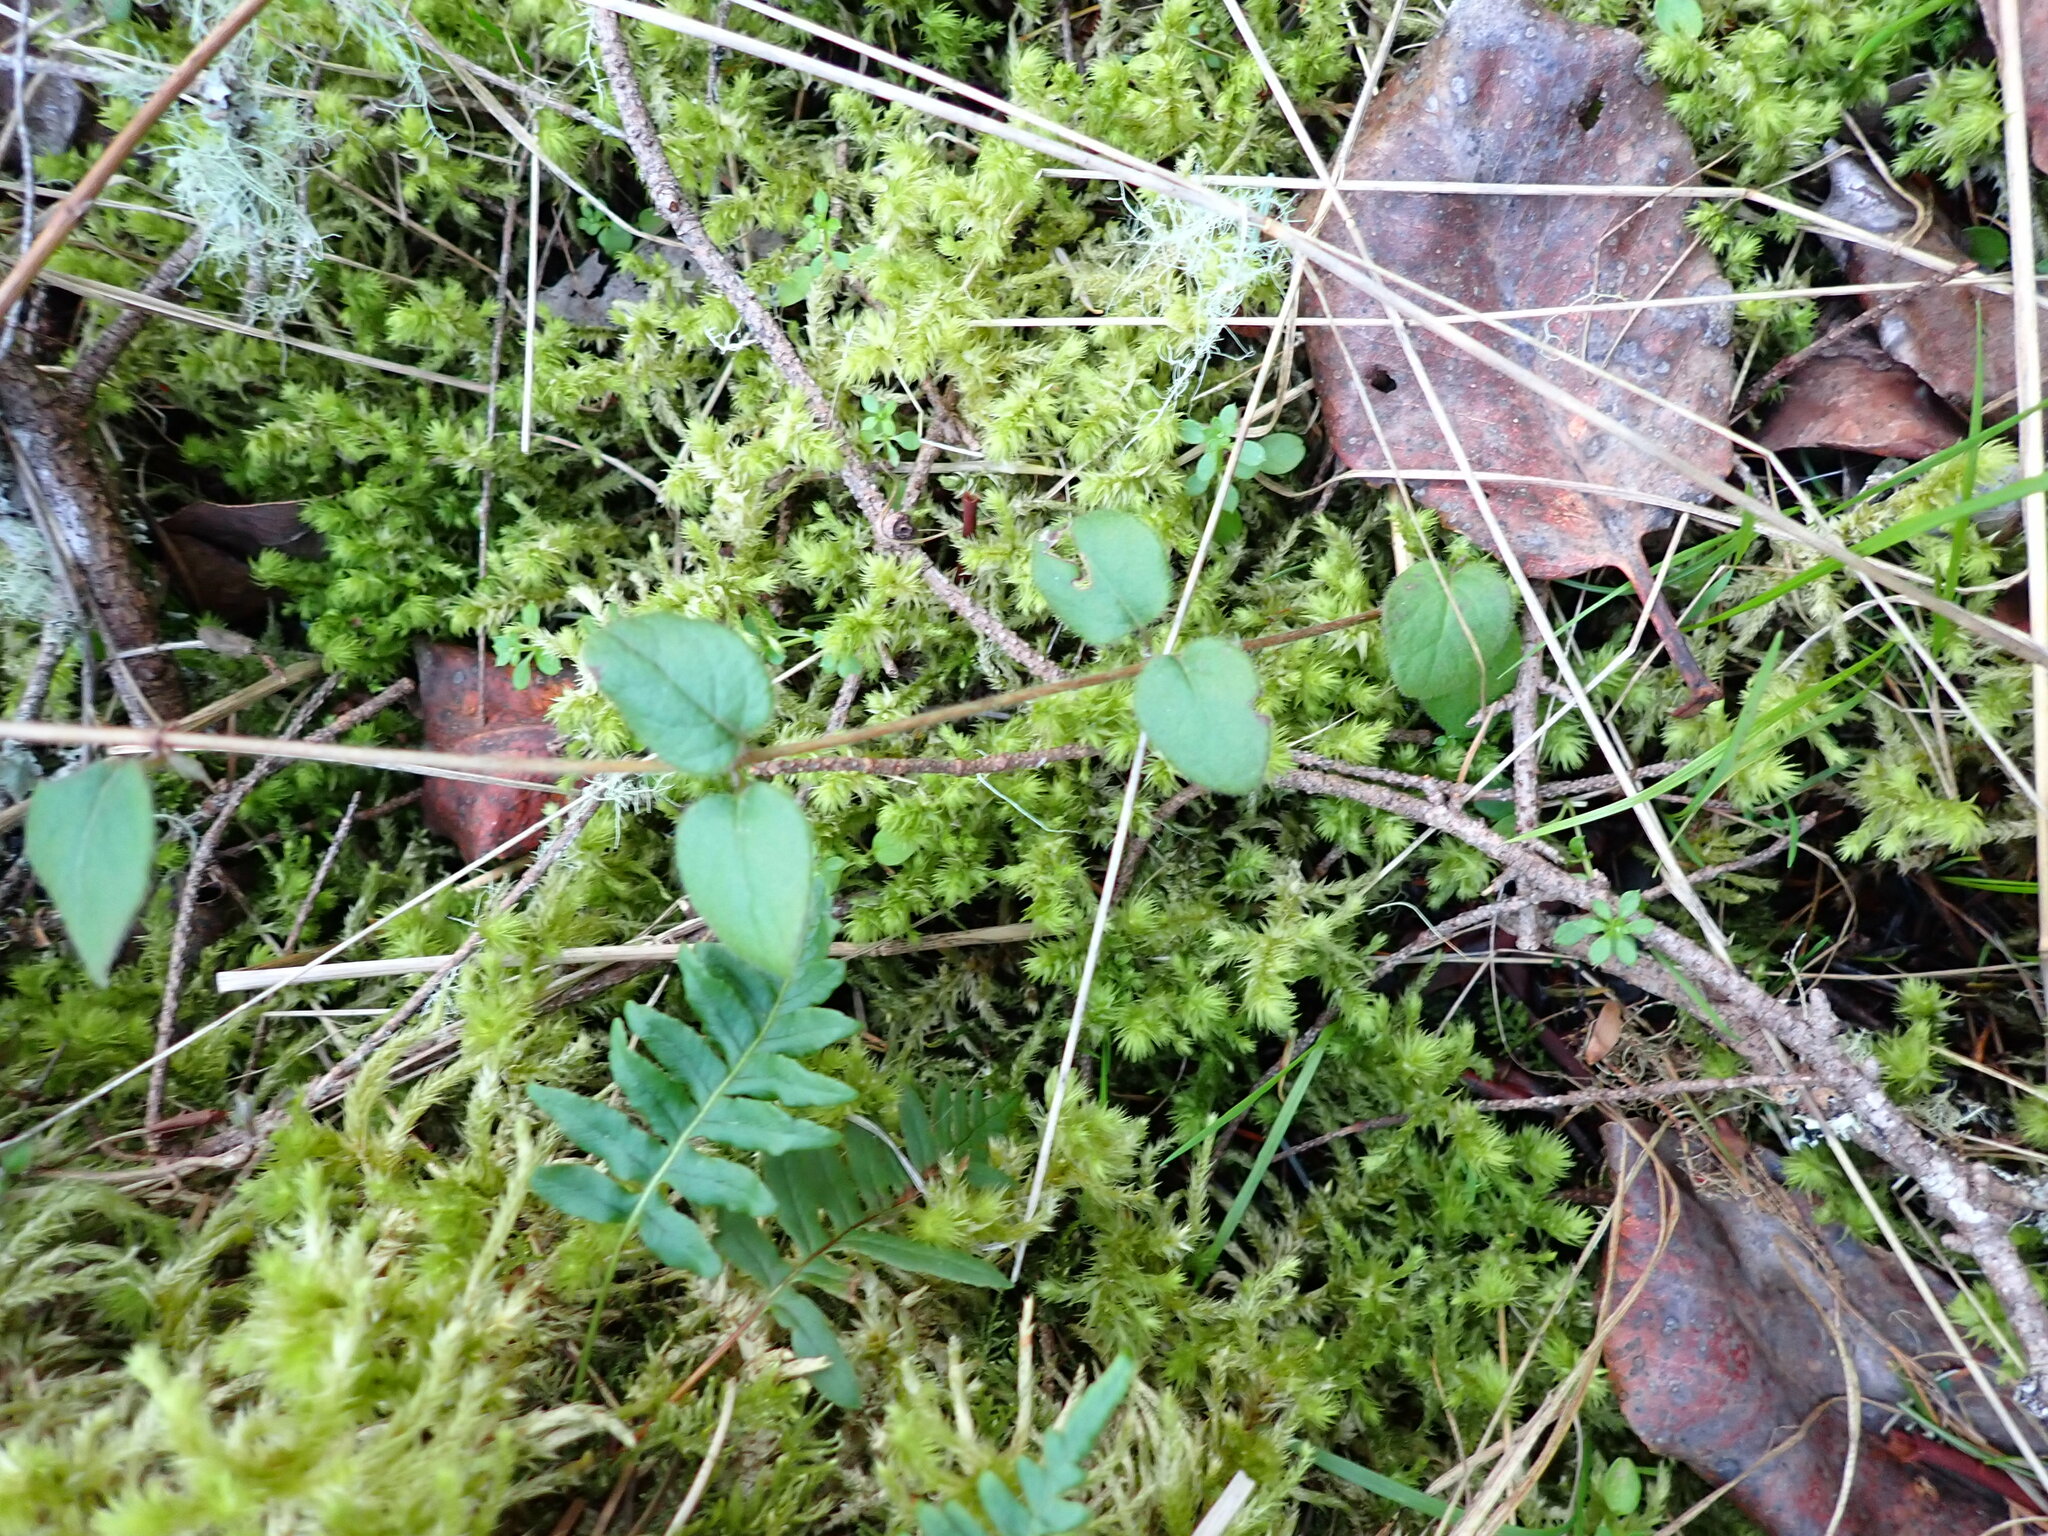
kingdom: Plantae
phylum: Tracheophyta
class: Magnoliopsida
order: Dipsacales
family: Caprifoliaceae
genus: Lonicera
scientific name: Lonicera hispidula
